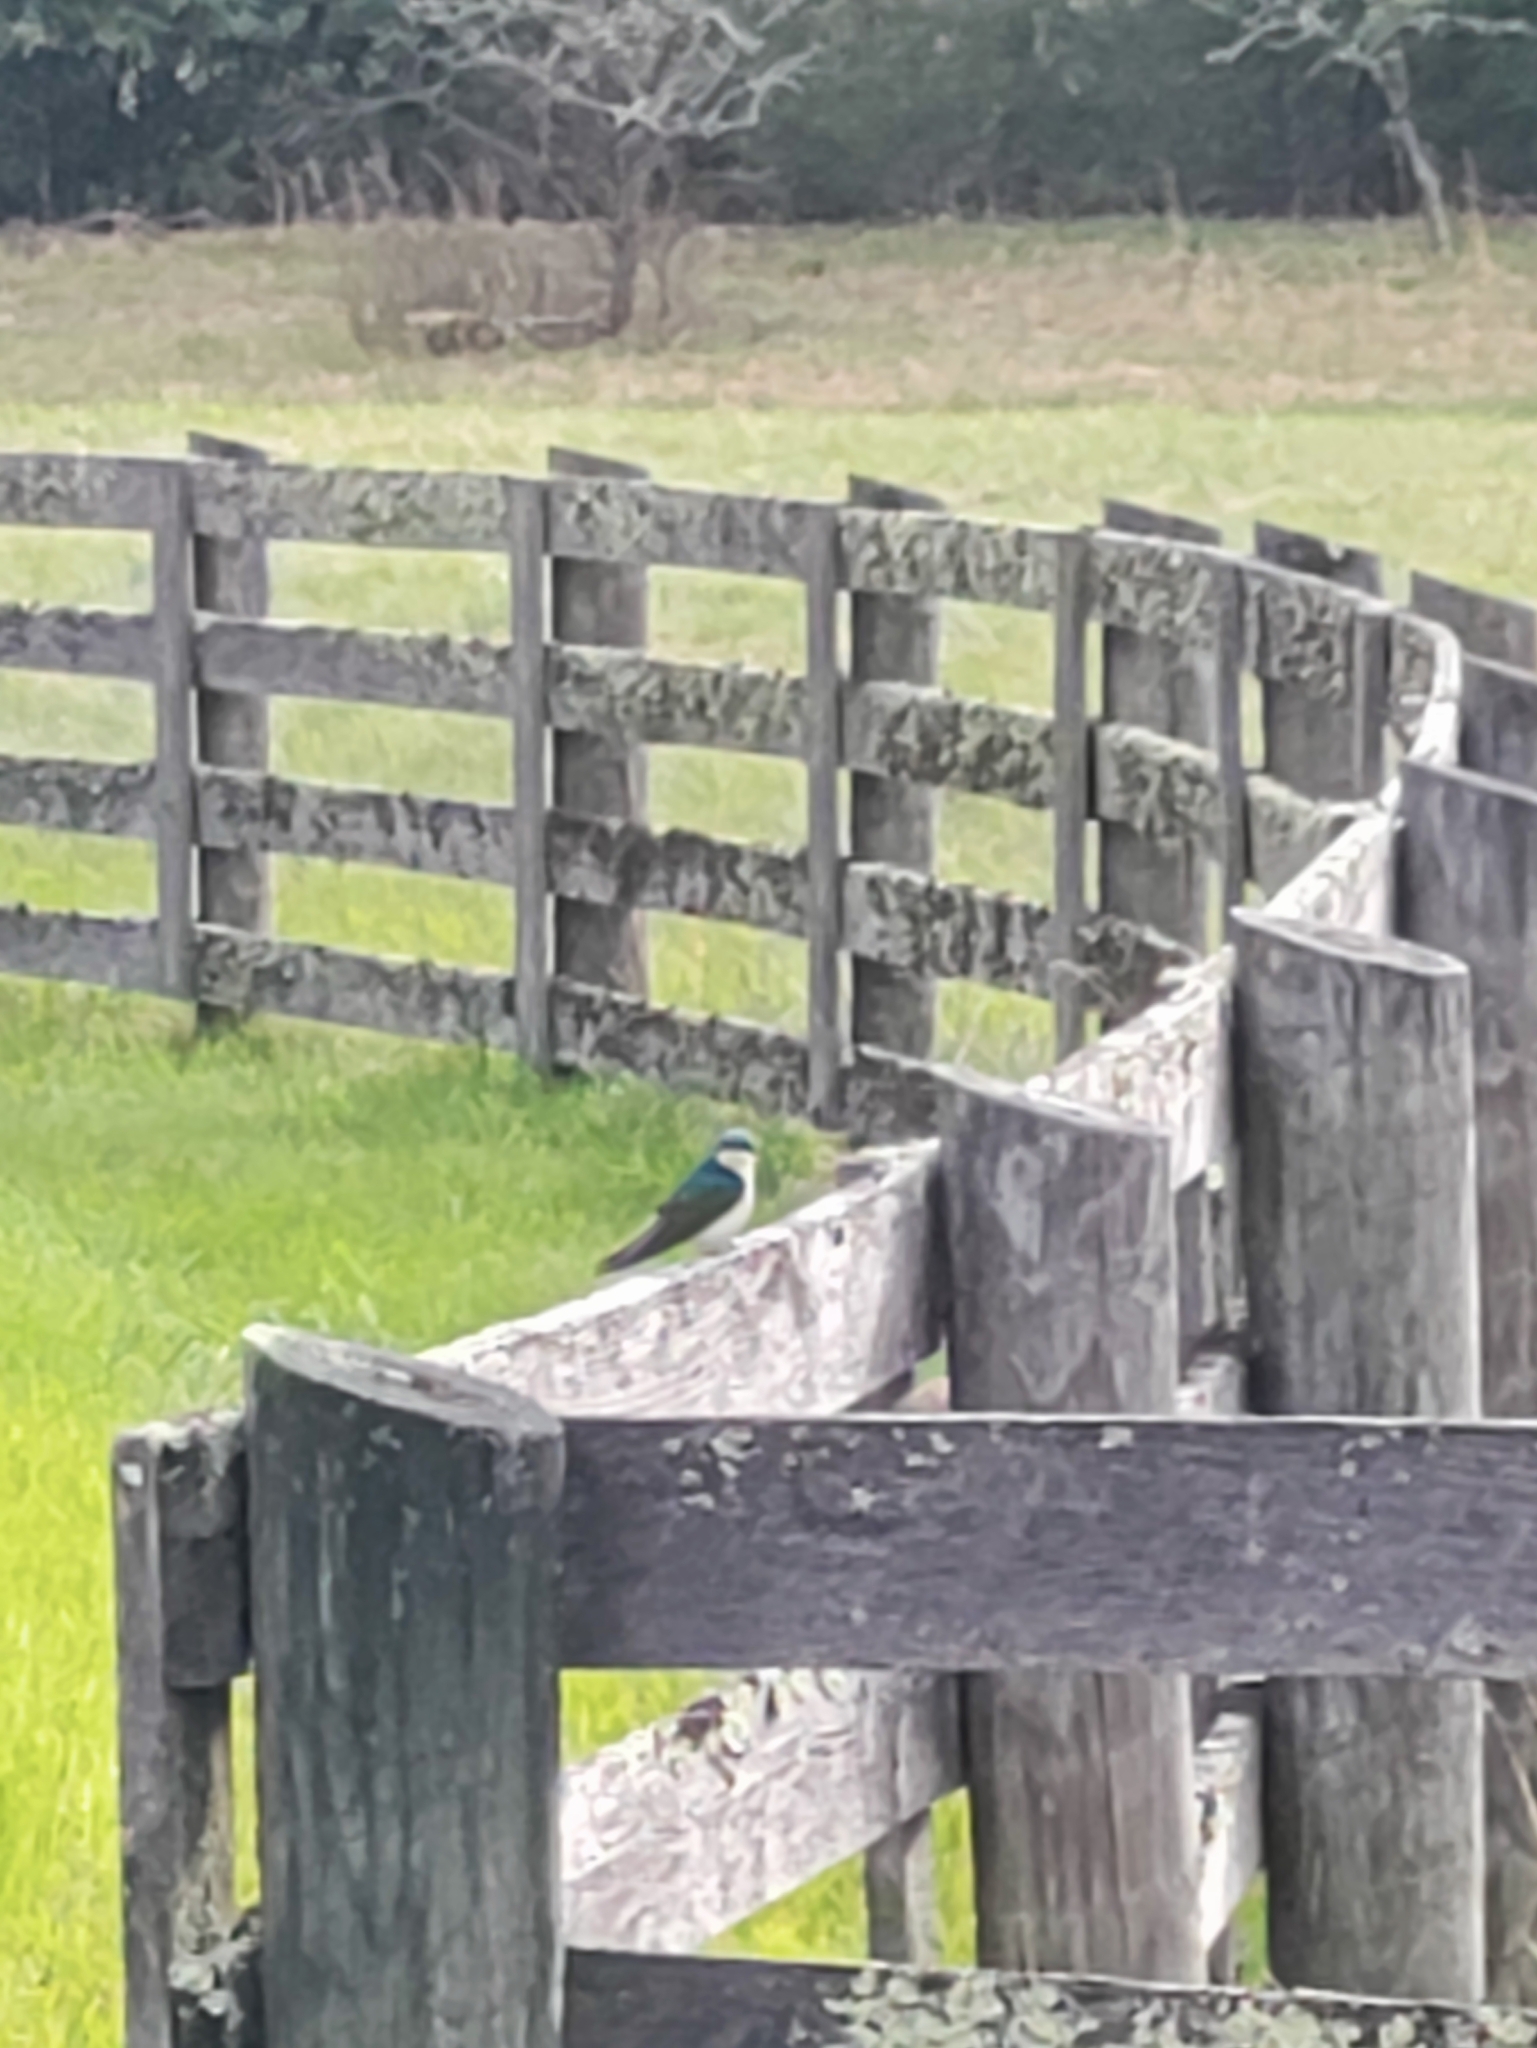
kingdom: Animalia
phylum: Chordata
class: Aves
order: Passeriformes
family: Hirundinidae
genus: Tachycineta
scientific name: Tachycineta bicolor
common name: Tree swallow
